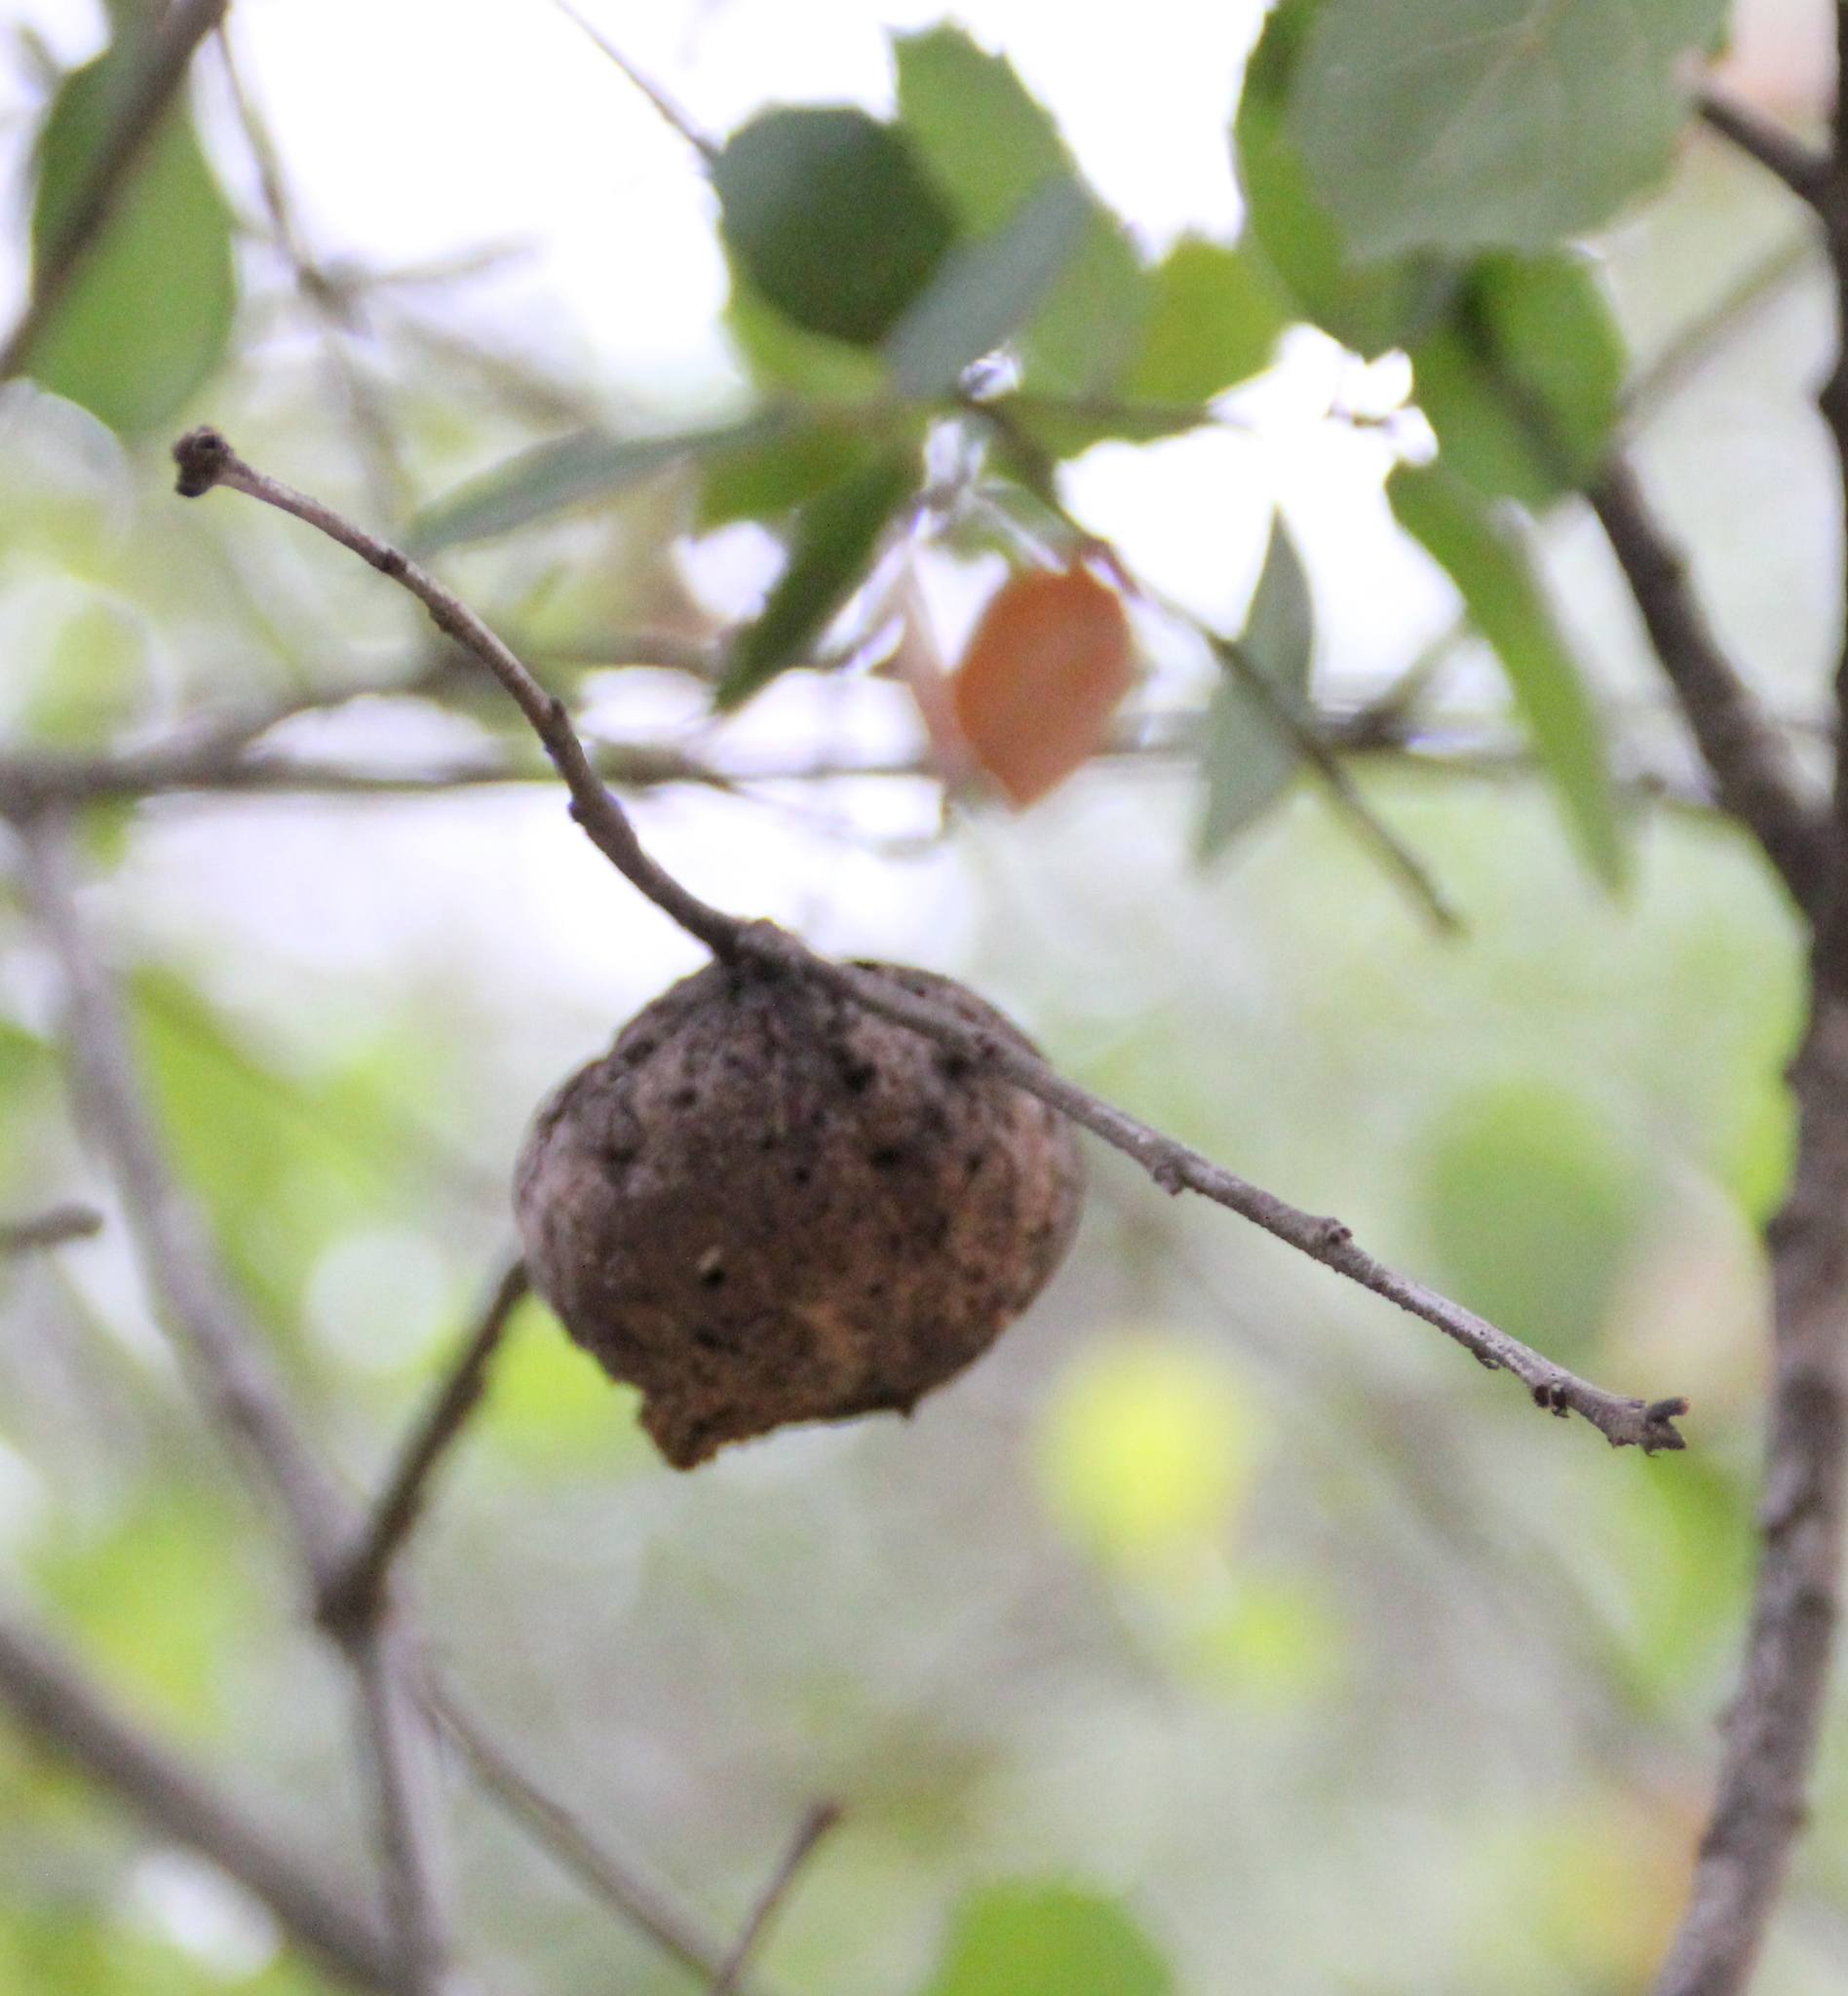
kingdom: Animalia
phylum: Arthropoda
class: Insecta
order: Hymenoptera
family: Cynipidae
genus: Amphibolips
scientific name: Amphibolips quercuspomiformis
